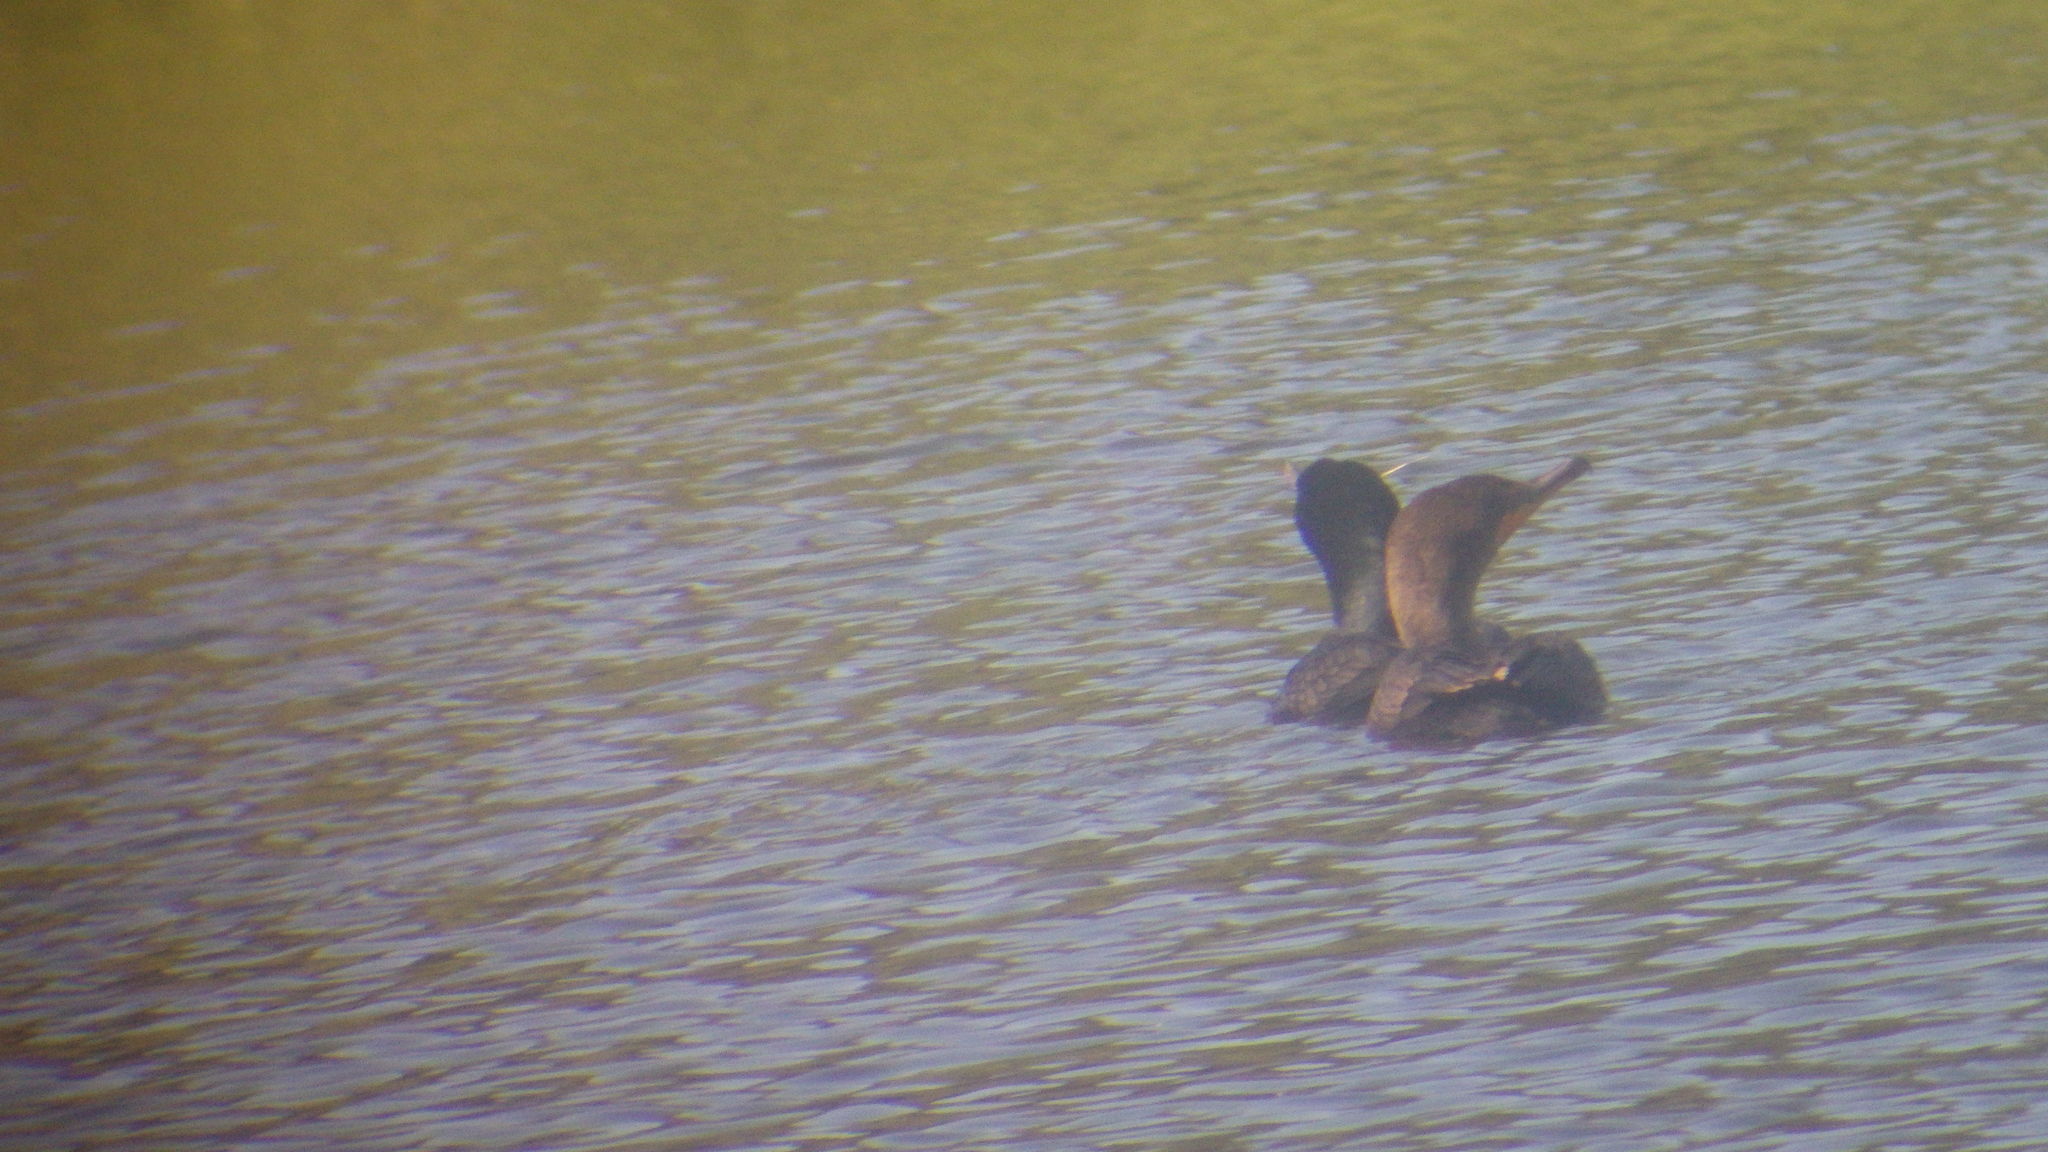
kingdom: Animalia
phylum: Chordata
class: Aves
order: Suliformes
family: Phalacrocoracidae
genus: Phalacrocorax
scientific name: Phalacrocorax auritus
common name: Double-crested cormorant
